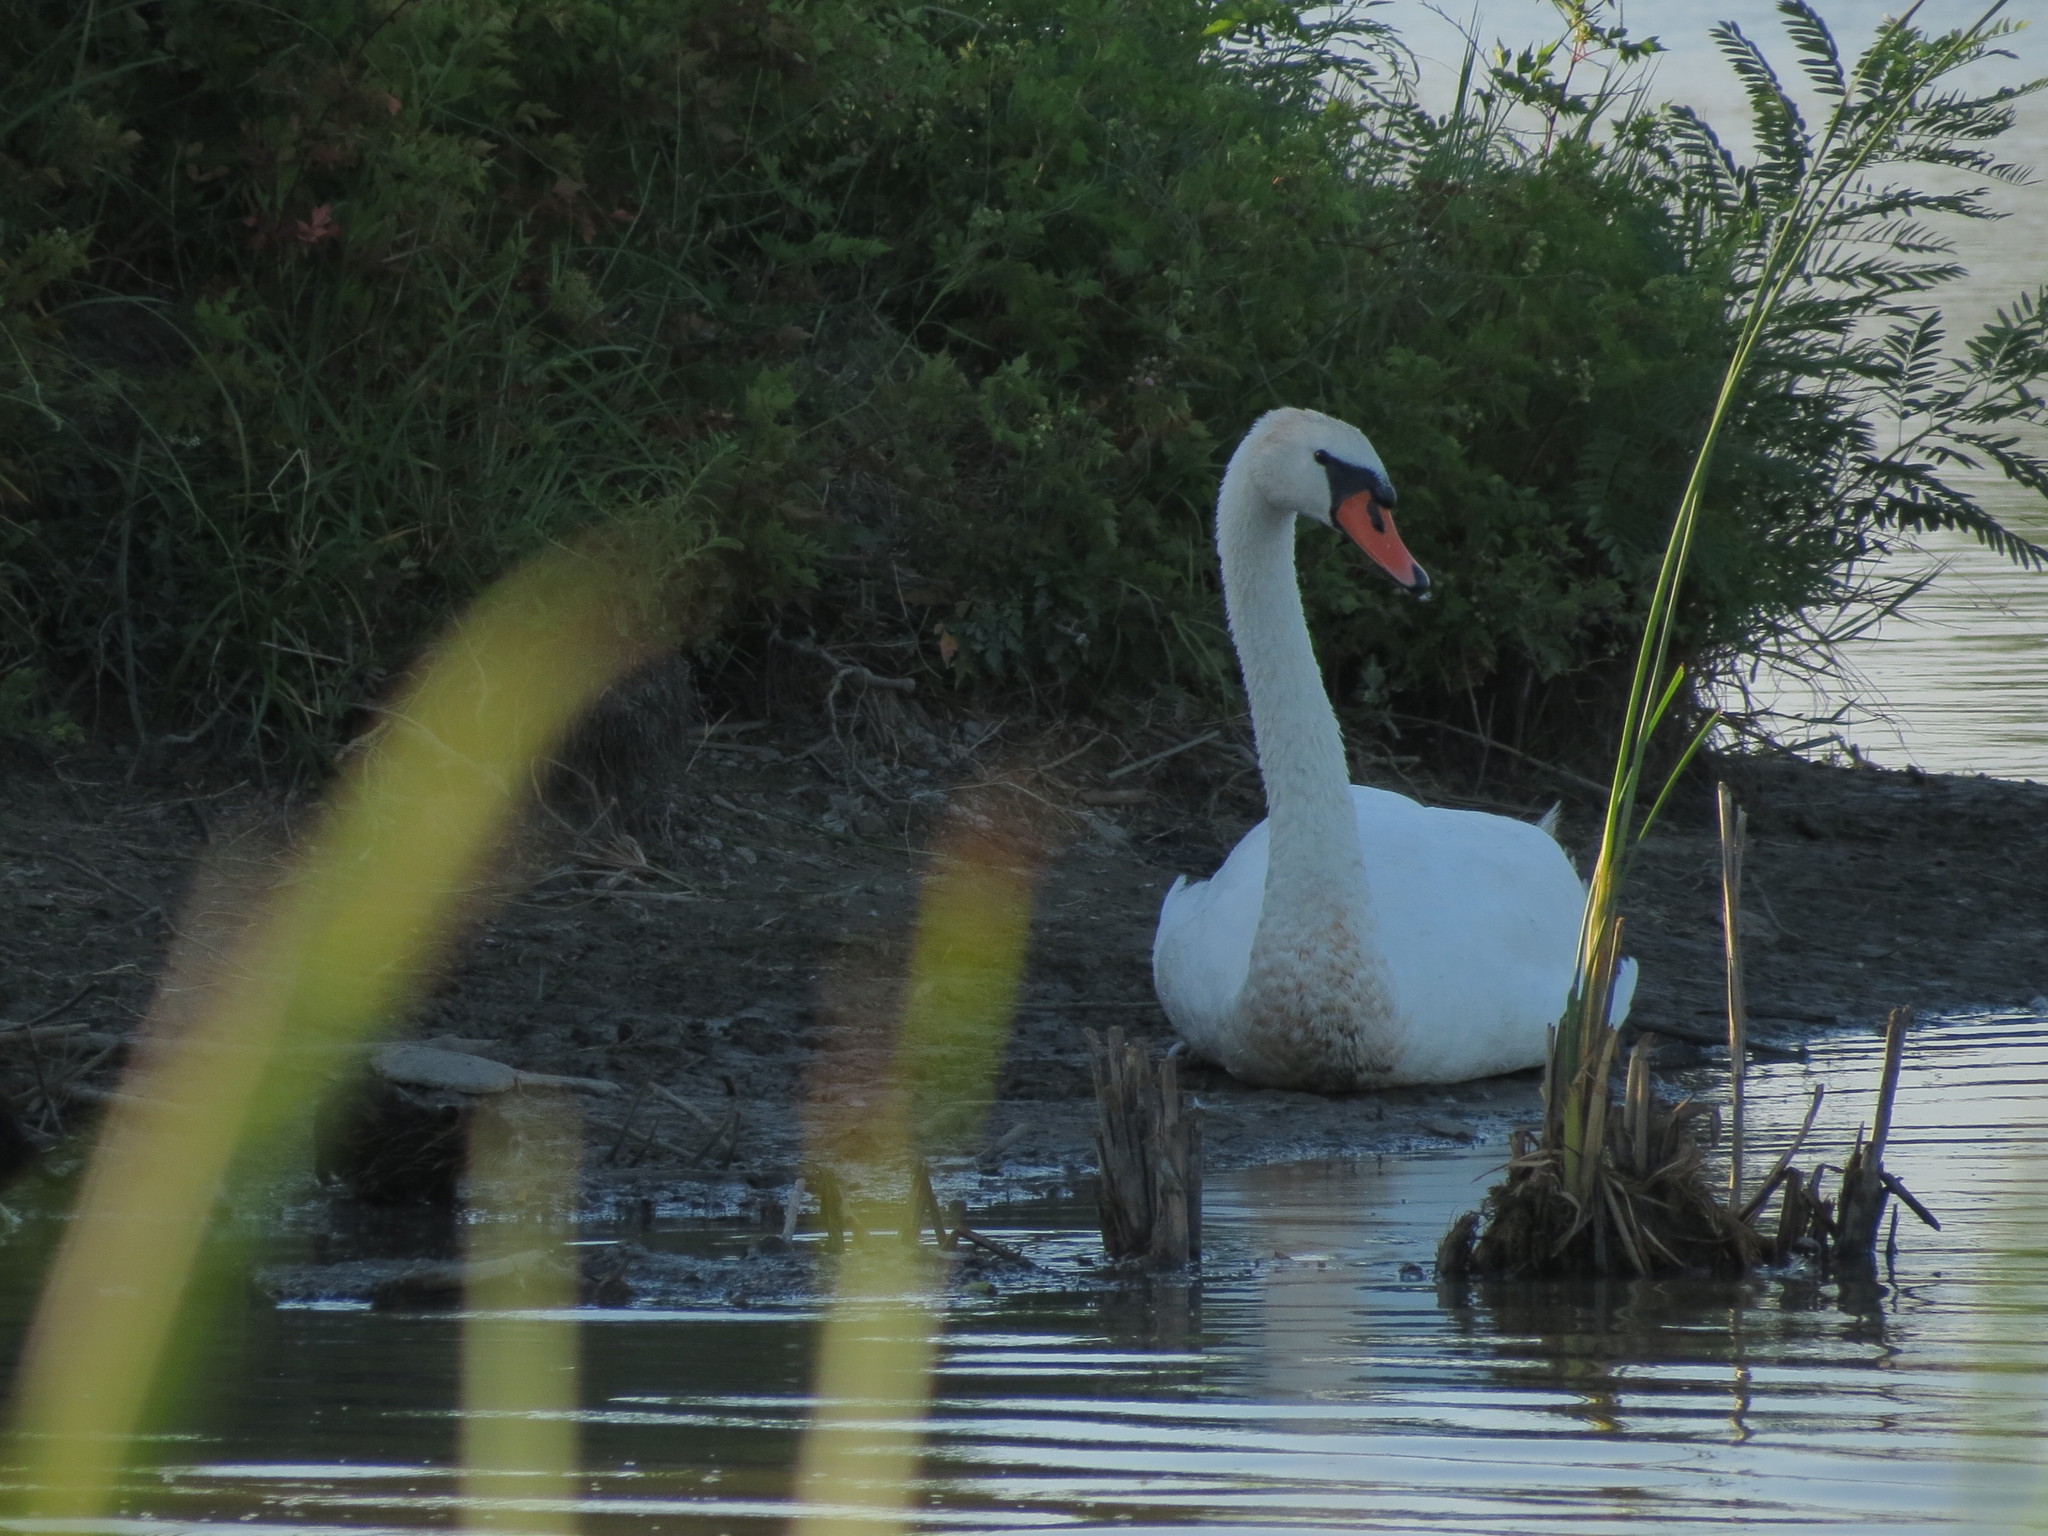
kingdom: Animalia
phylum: Chordata
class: Aves
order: Anseriformes
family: Anatidae
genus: Cygnus
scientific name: Cygnus olor
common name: Mute swan
